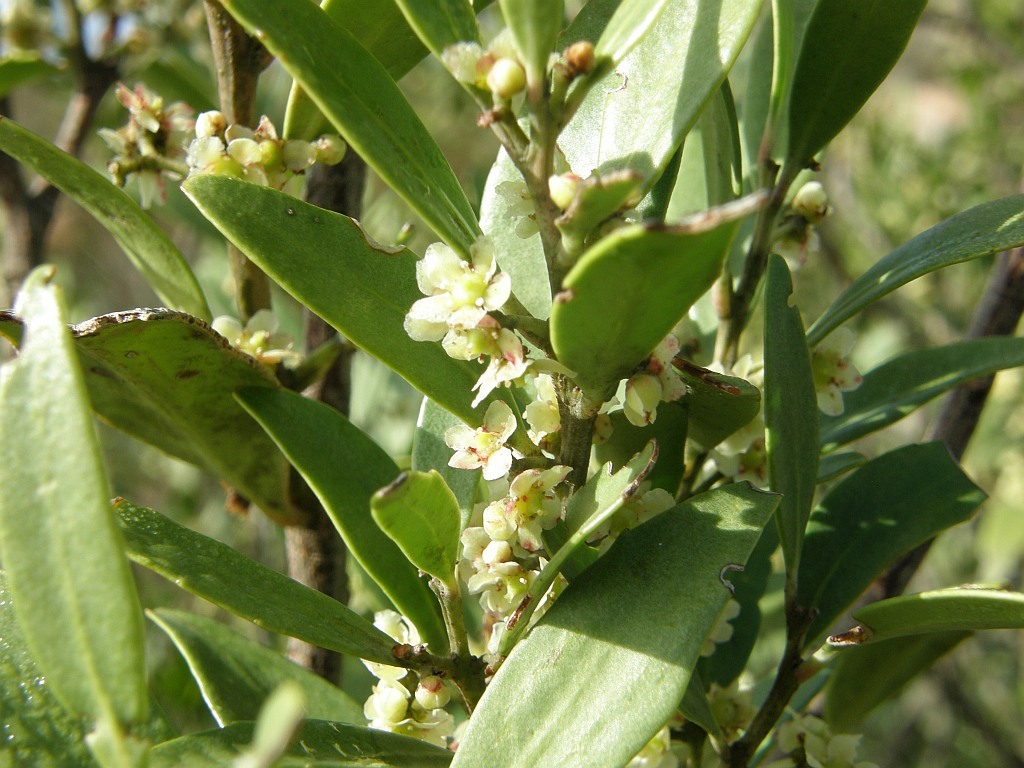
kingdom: Plantae
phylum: Tracheophyta
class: Magnoliopsida
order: Celastrales
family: Celastraceae
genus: Gymnosporia
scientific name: Gymnosporia laurina
